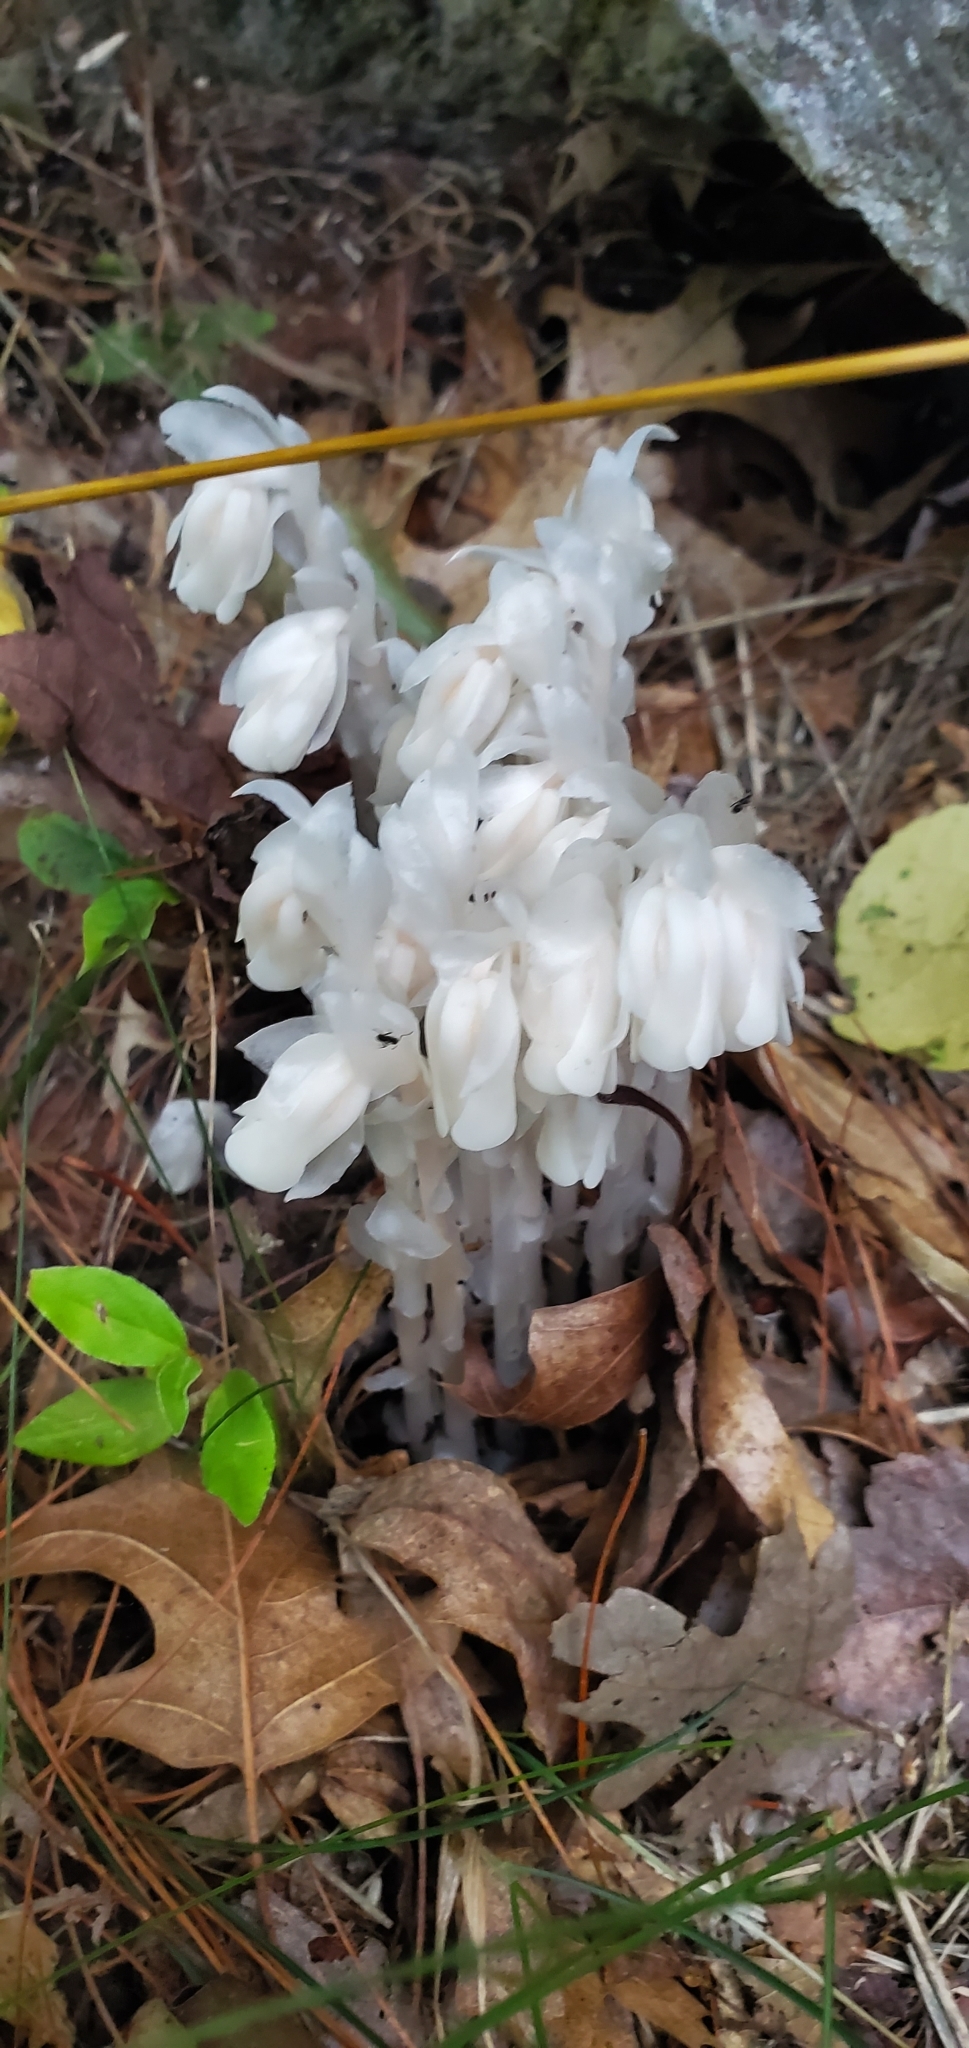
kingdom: Plantae
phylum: Tracheophyta
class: Magnoliopsida
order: Ericales
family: Ericaceae
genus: Monotropa
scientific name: Monotropa uniflora
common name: Convulsion root
